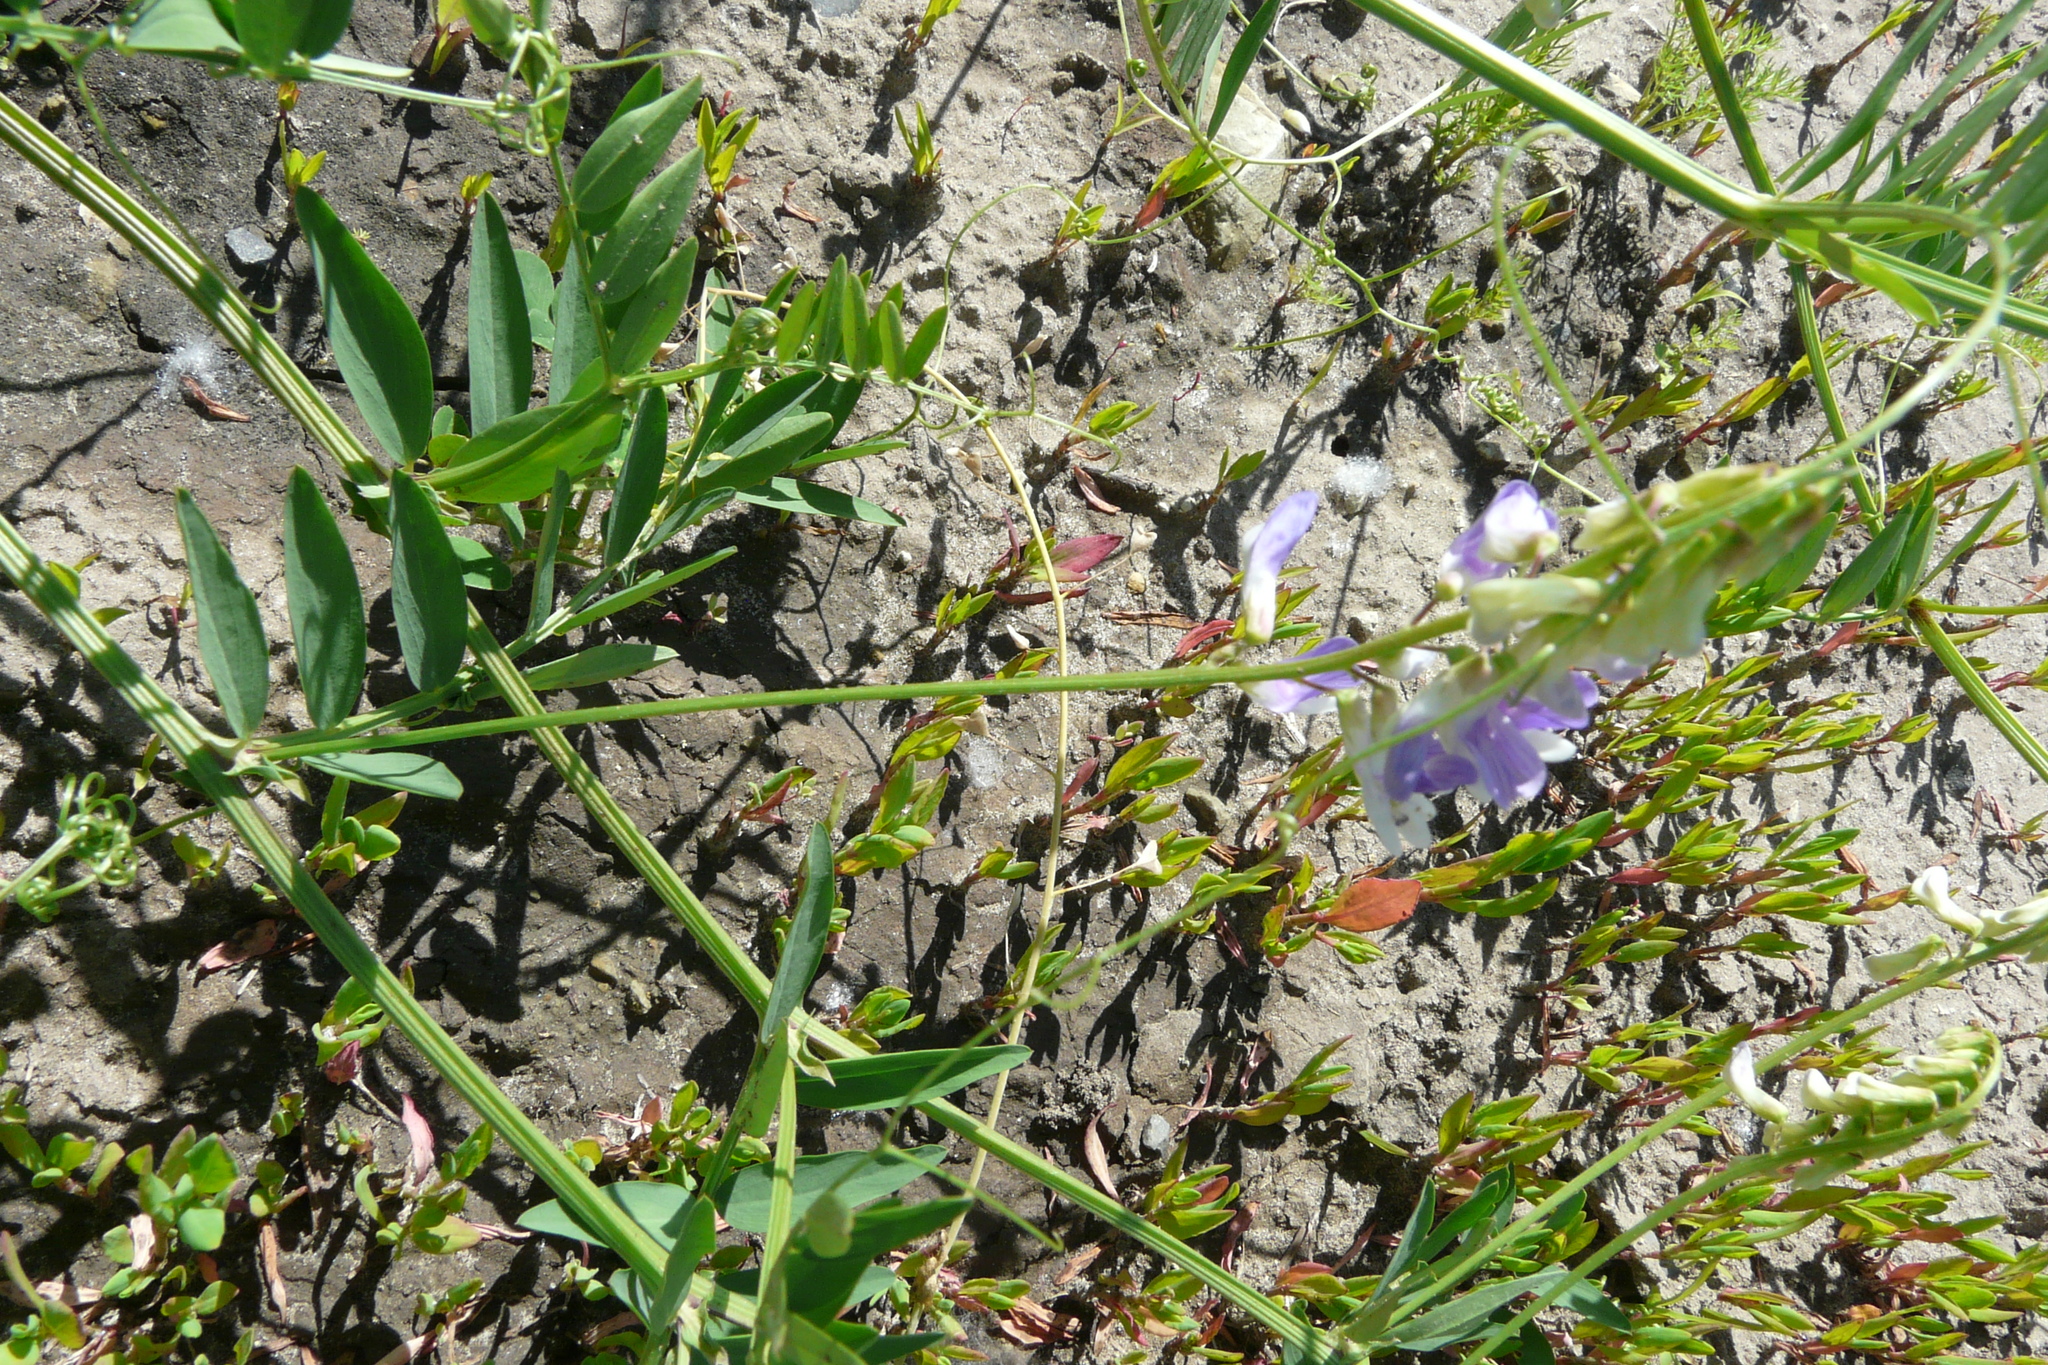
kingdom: Plantae
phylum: Tracheophyta
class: Magnoliopsida
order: Fabales
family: Fabaceae
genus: Vicia
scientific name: Vicia biennis
